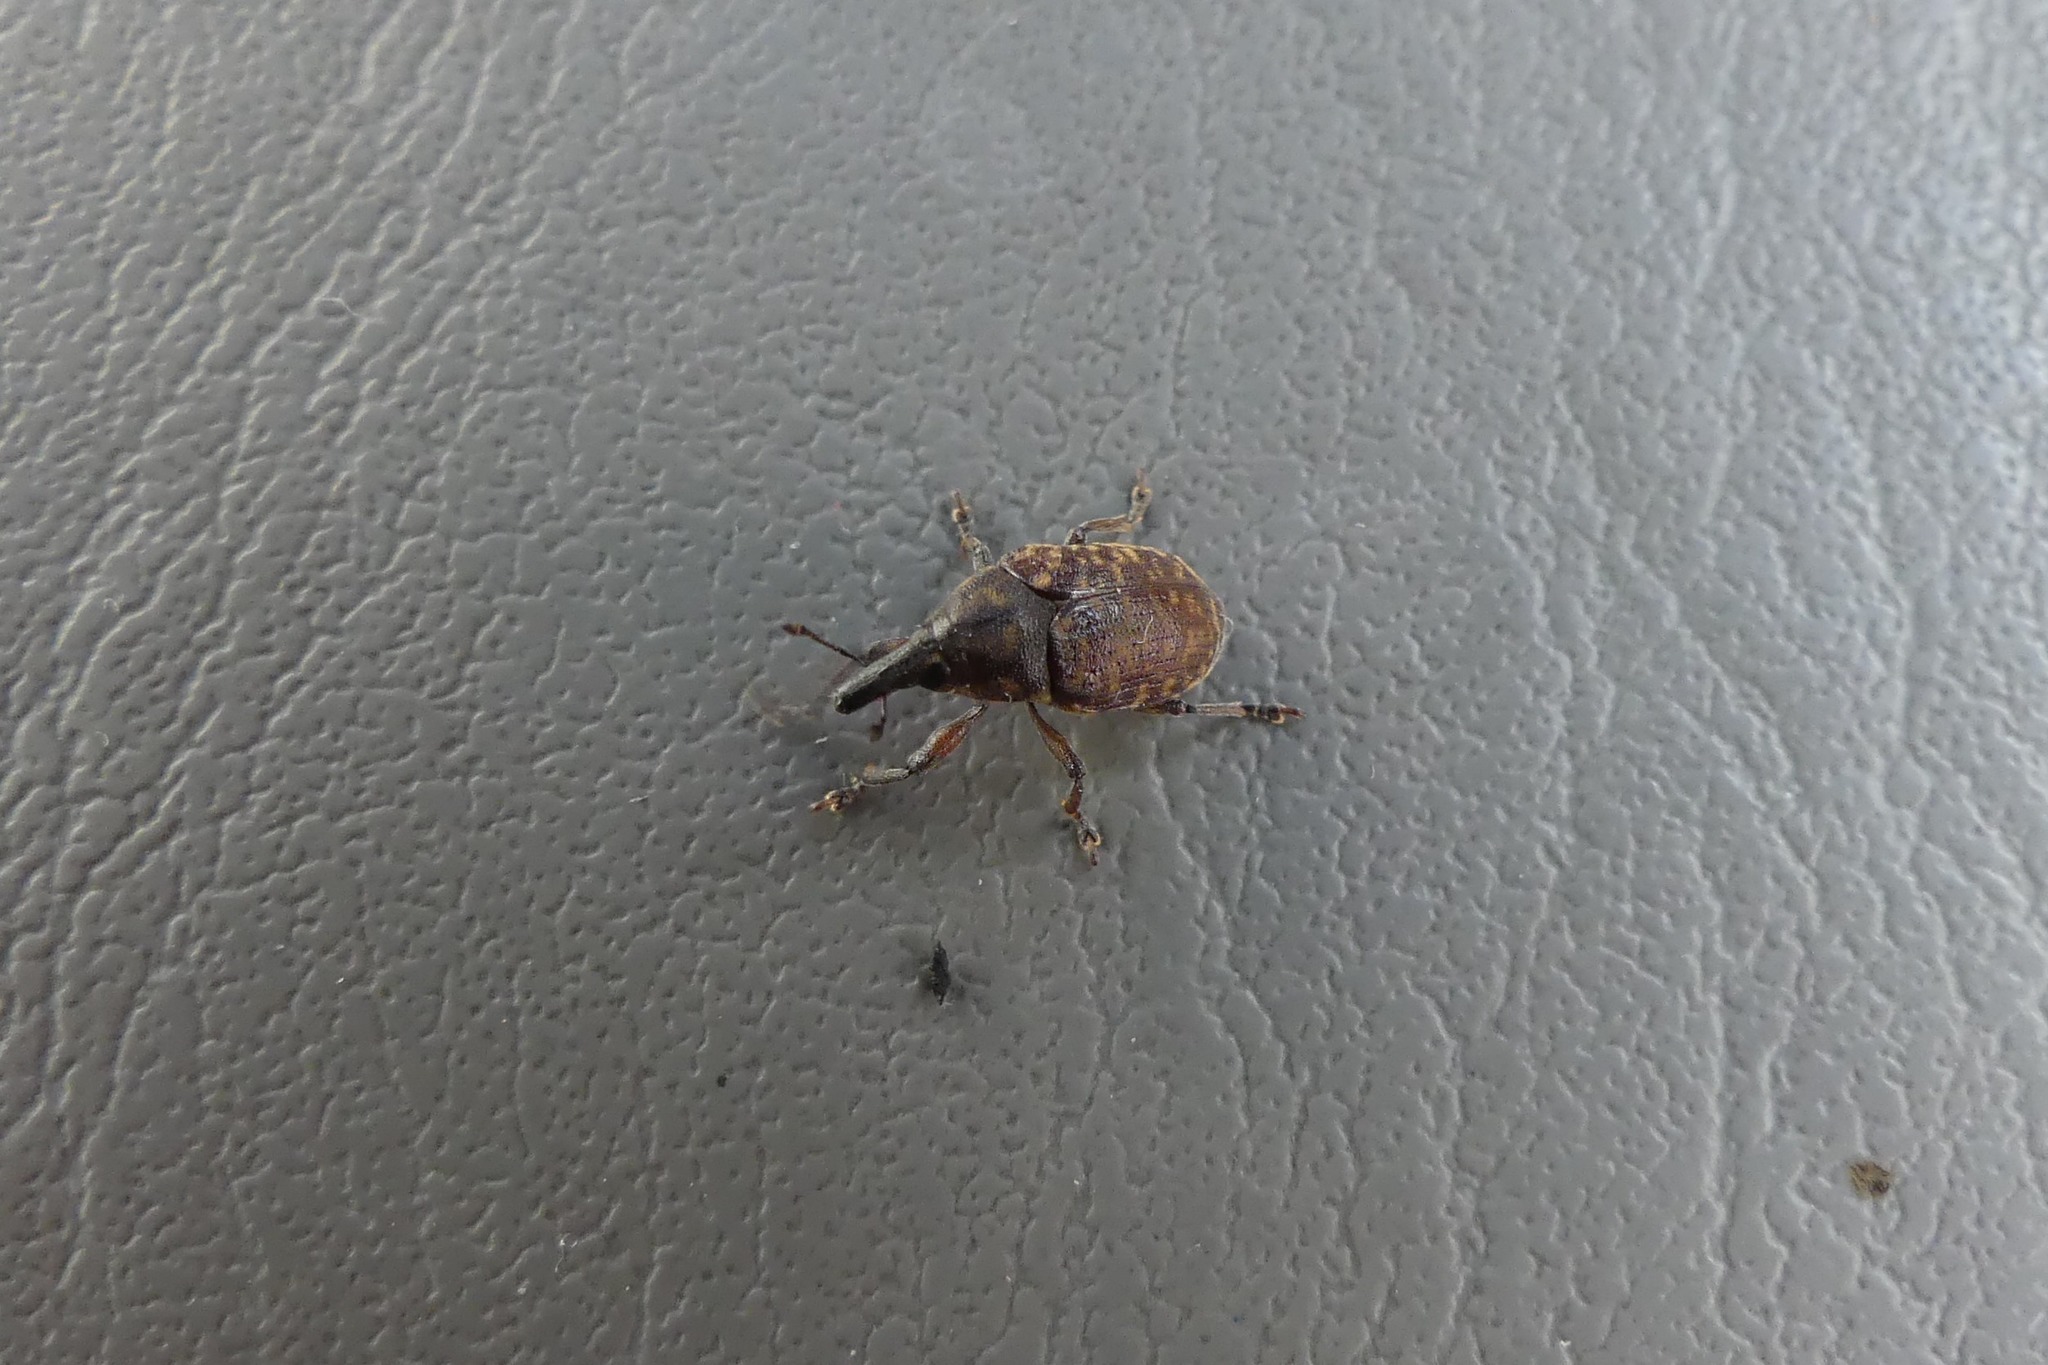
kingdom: Animalia
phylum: Arthropoda
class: Insecta
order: Coleoptera
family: Curculionidae
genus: Larinus
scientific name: Larinus turbinatus
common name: Weevil
